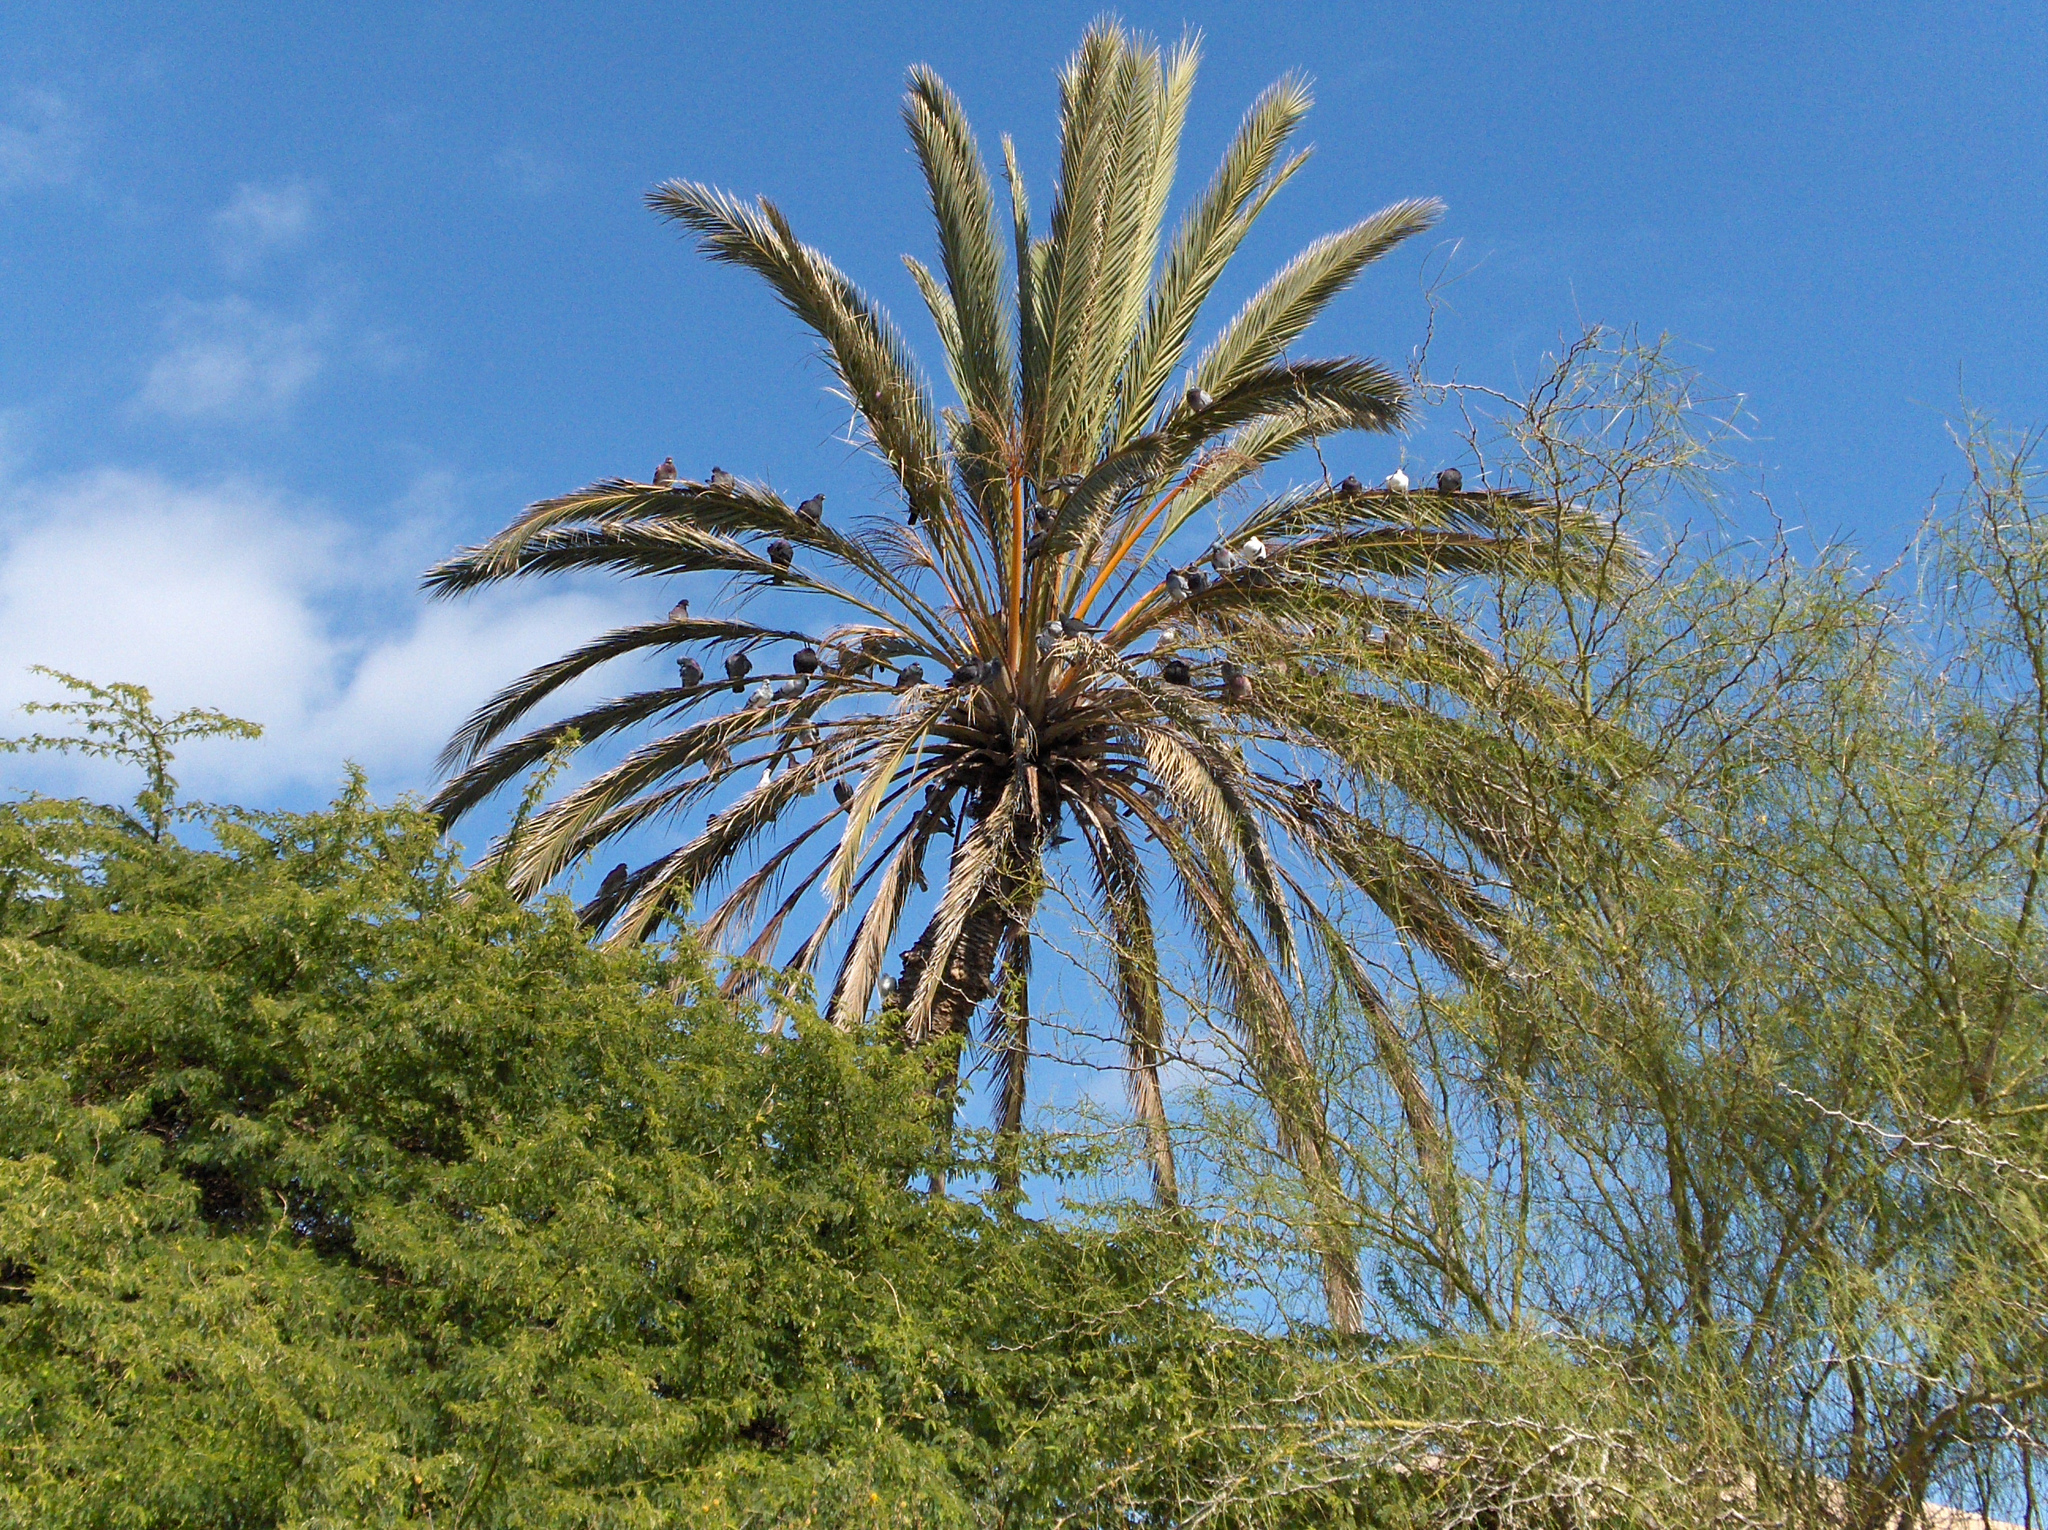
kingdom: Animalia
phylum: Chordata
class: Aves
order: Columbiformes
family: Columbidae
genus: Columba
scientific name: Columba livia
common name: Rock pigeon
